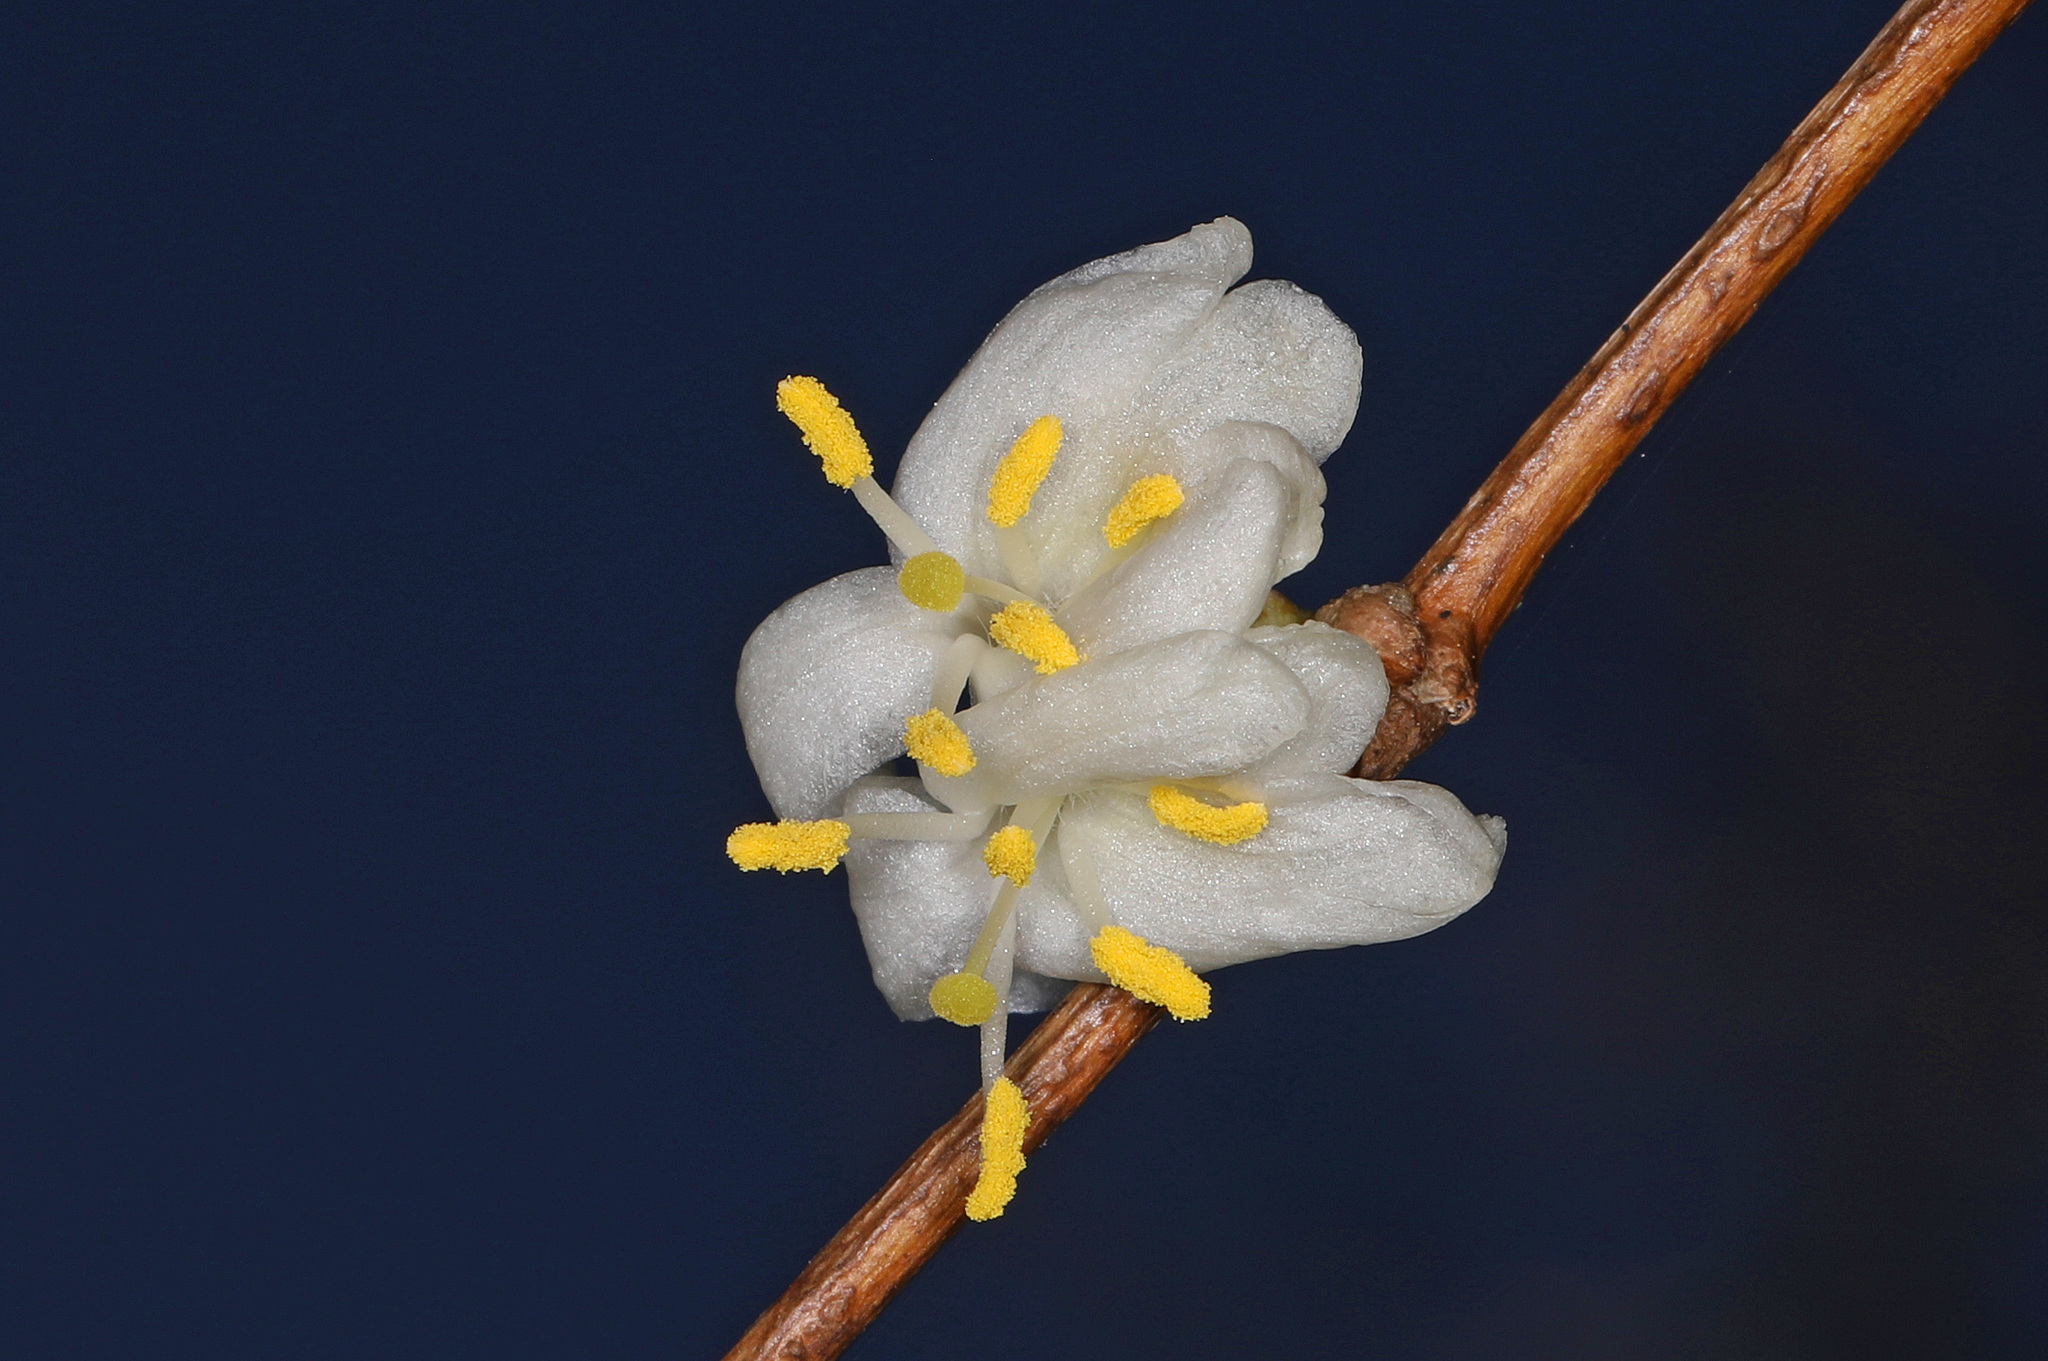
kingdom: Plantae
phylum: Tracheophyta
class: Magnoliopsida
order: Dipsacales
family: Caprifoliaceae
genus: Lonicera
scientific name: Lonicera fragrantissima
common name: Fragrant honeysuckle
